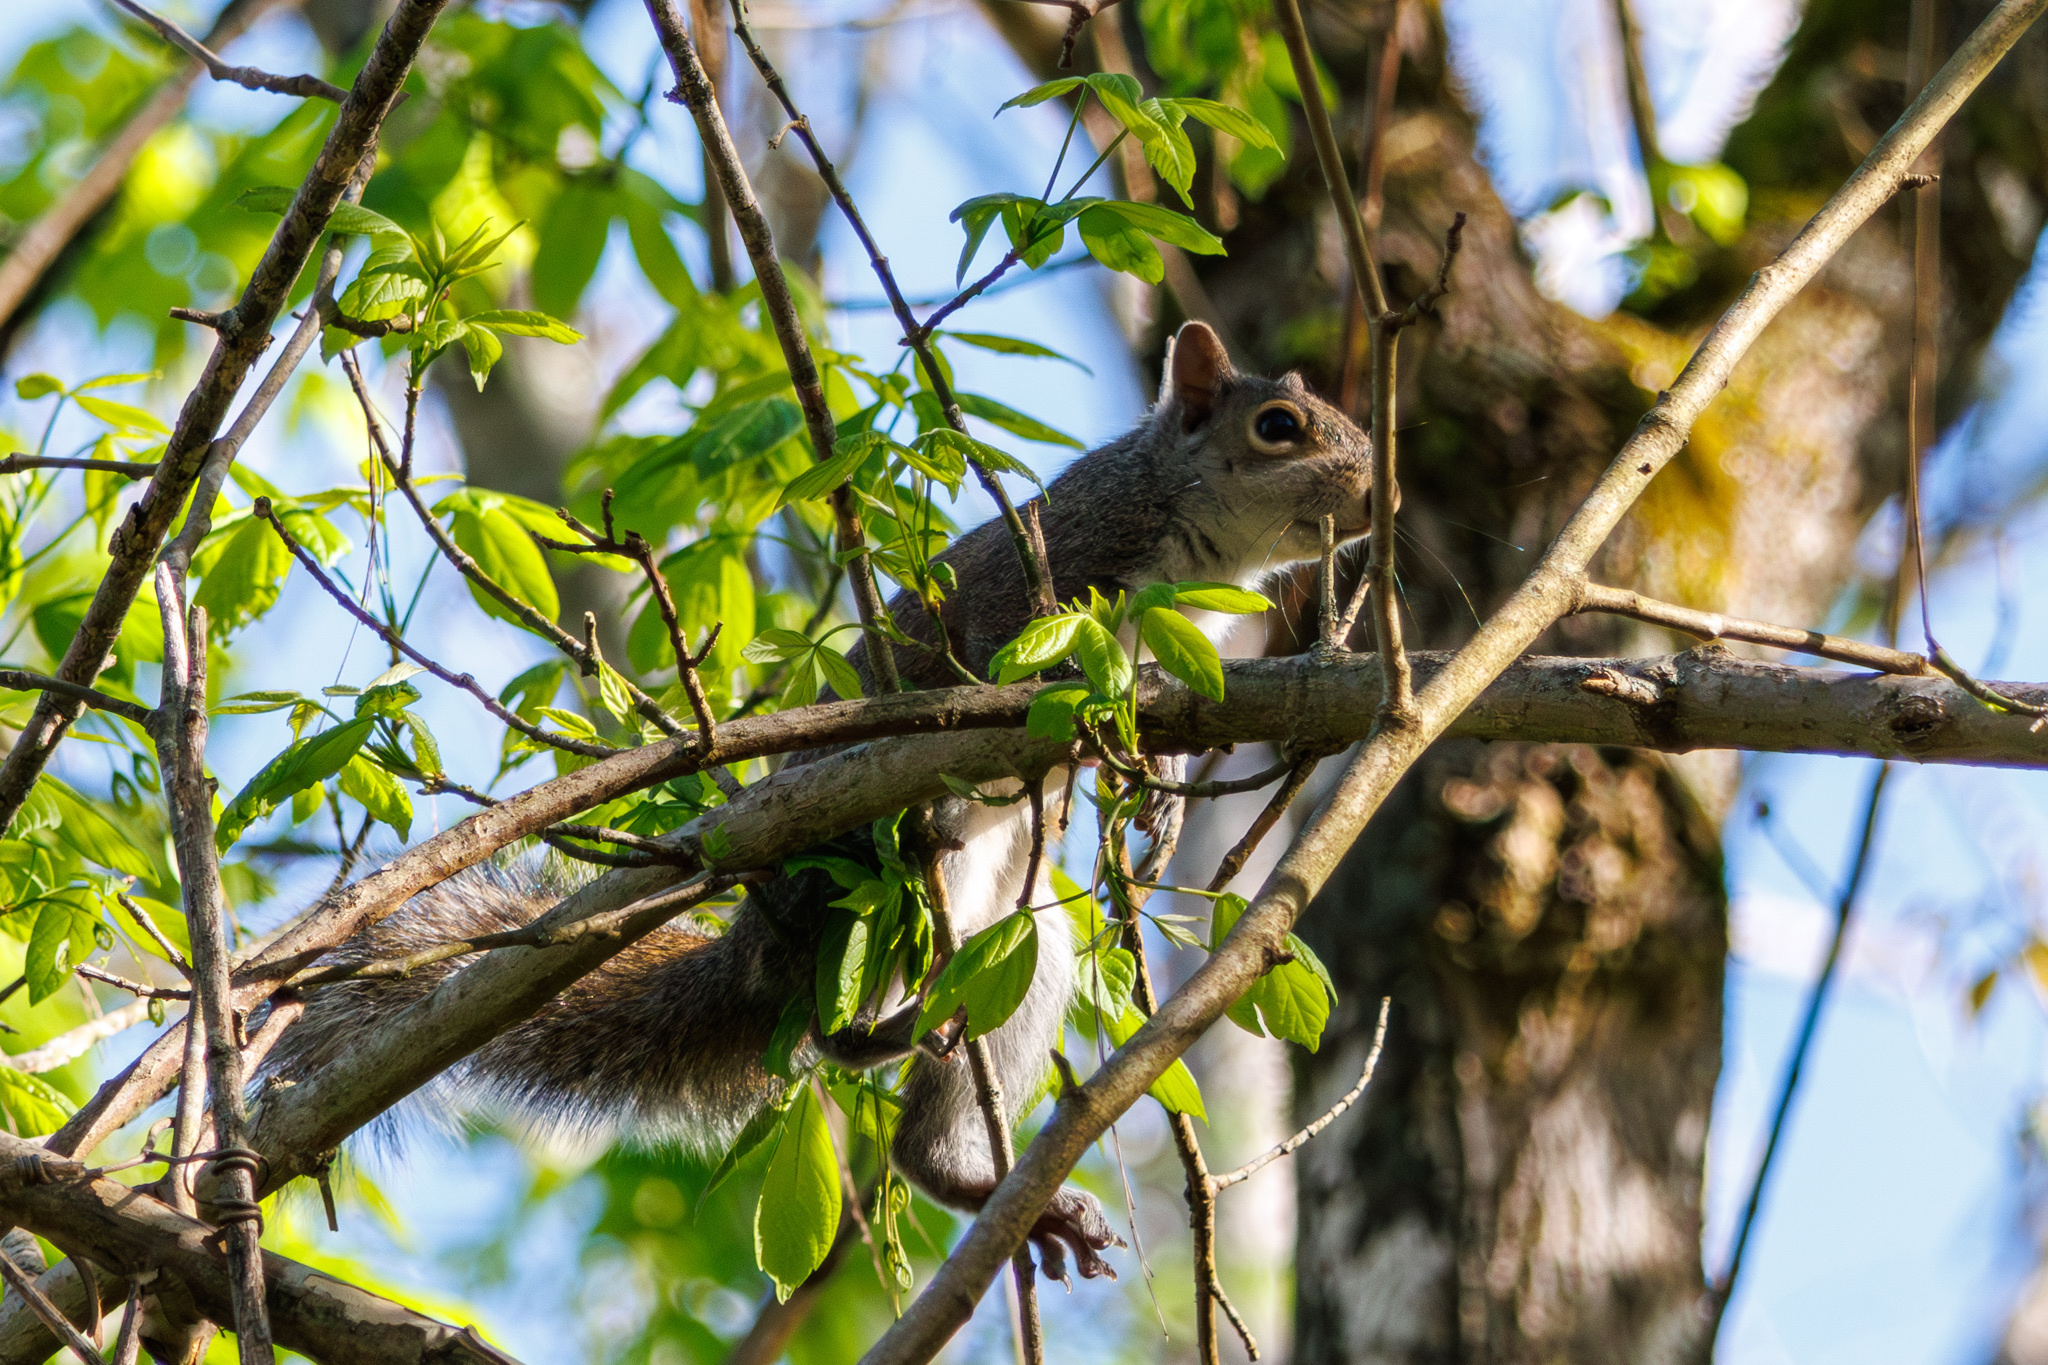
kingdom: Animalia
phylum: Chordata
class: Mammalia
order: Rodentia
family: Sciuridae
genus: Sciurus
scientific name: Sciurus carolinensis
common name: Eastern gray squirrel
